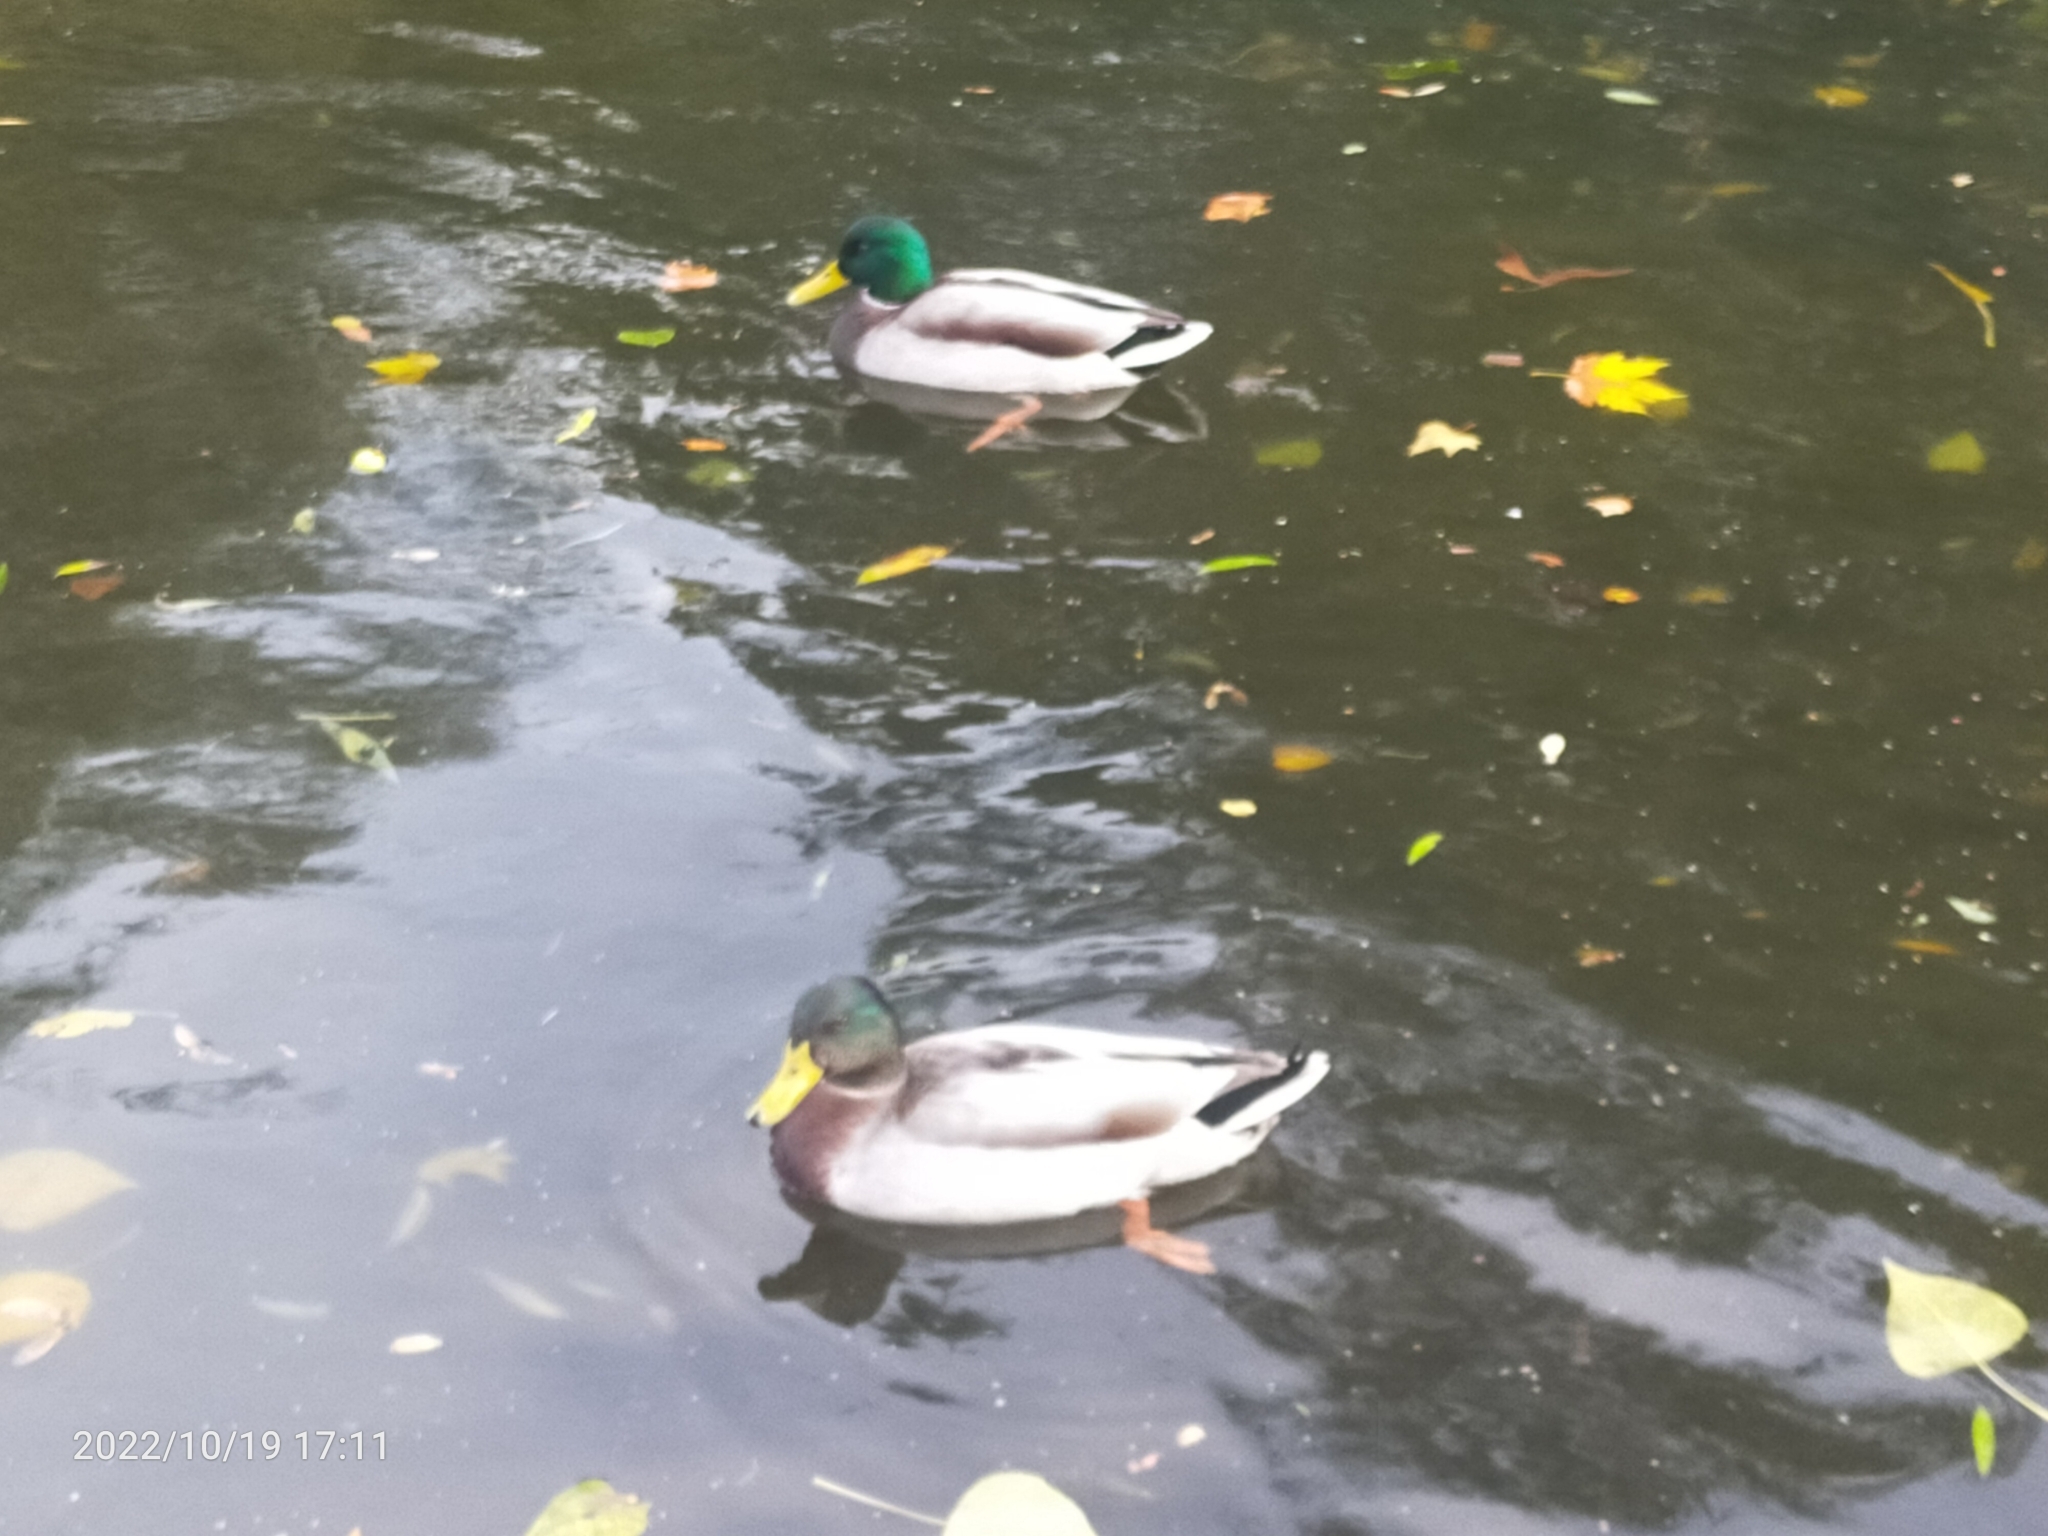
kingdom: Animalia
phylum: Chordata
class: Aves
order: Anseriformes
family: Anatidae
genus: Anas
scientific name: Anas platyrhynchos
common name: Mallard
